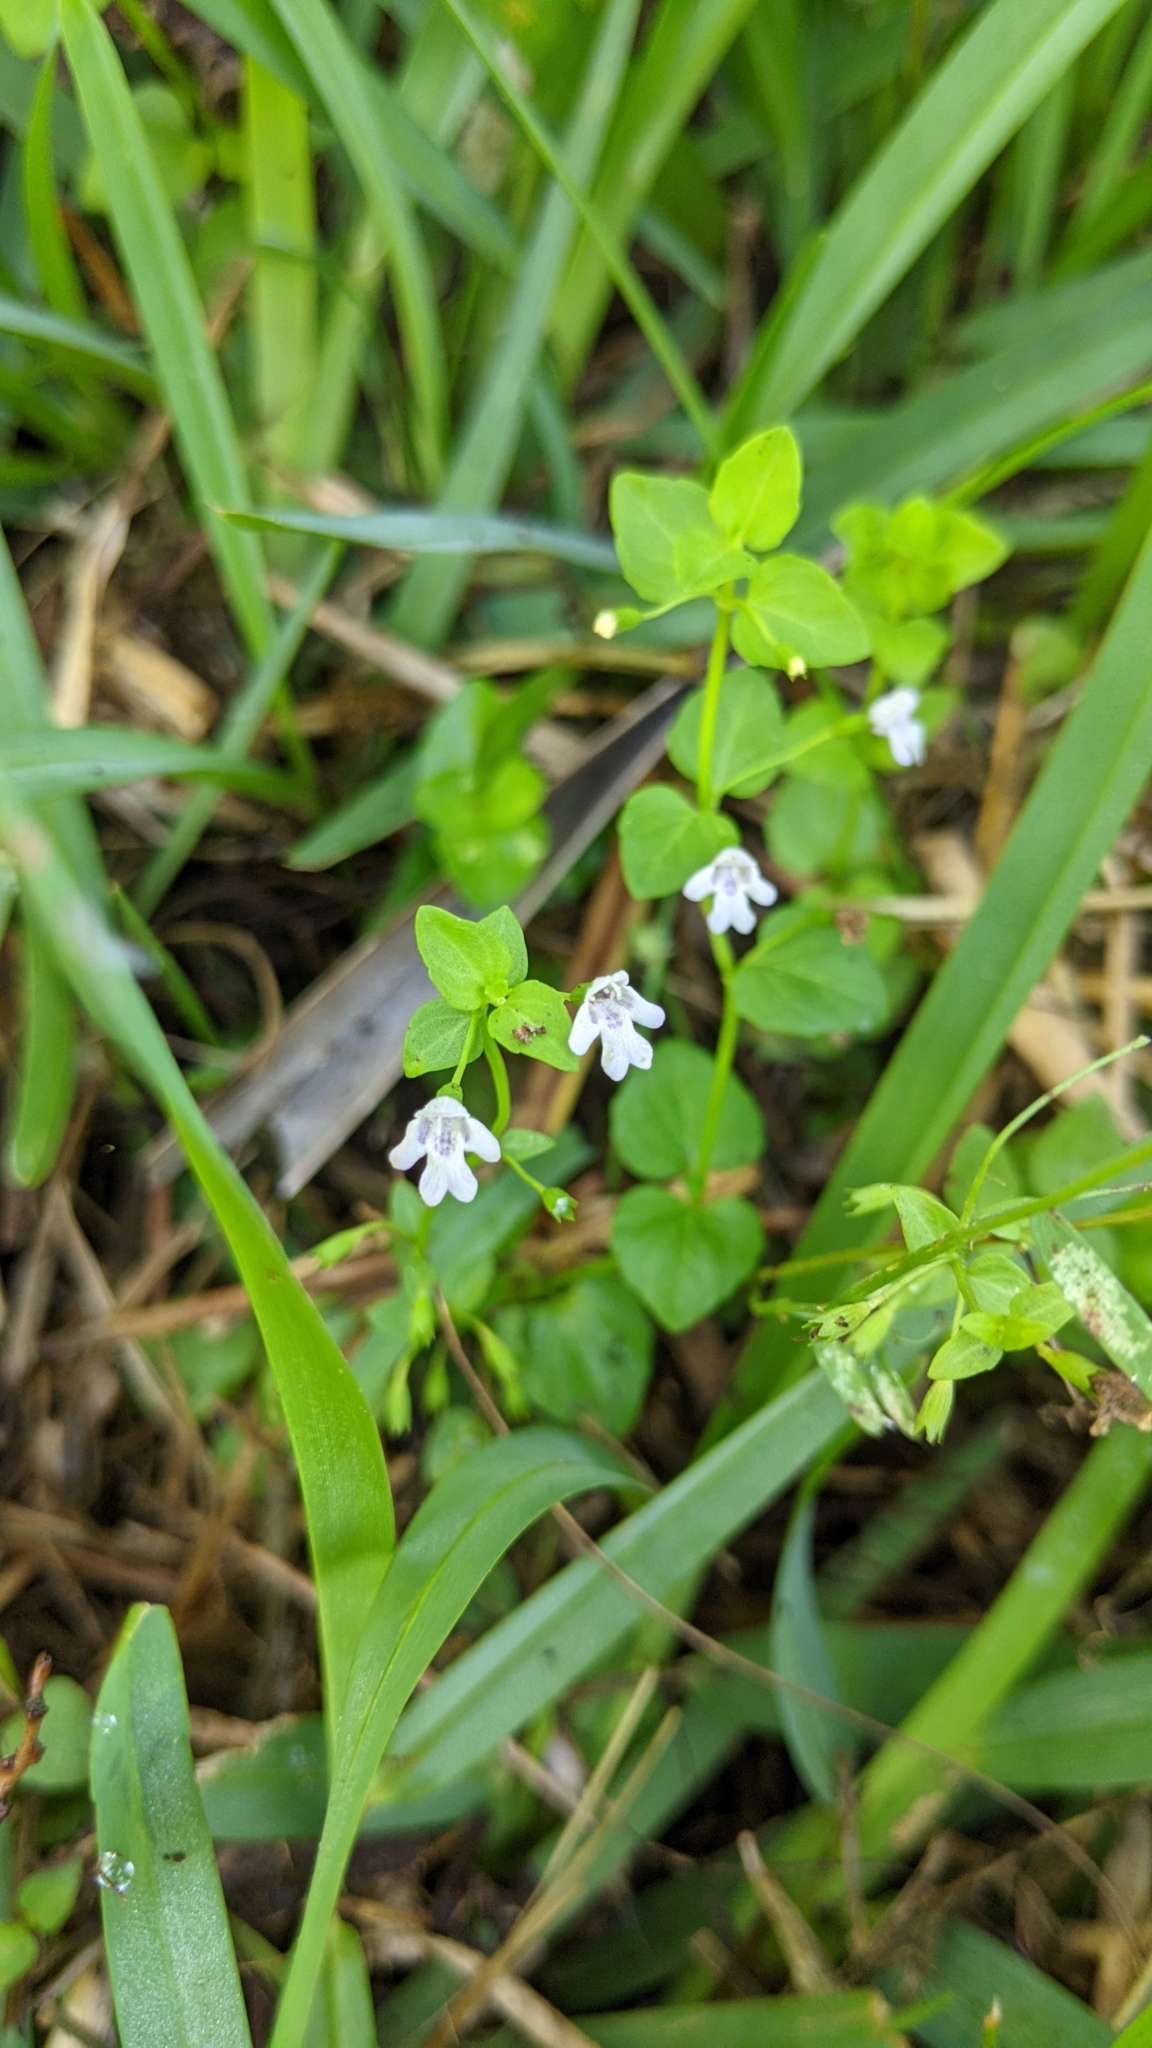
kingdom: Plantae
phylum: Tracheophyta
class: Magnoliopsida
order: Lamiales
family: Lamiaceae
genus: Clinopodium
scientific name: Clinopodium brownei
